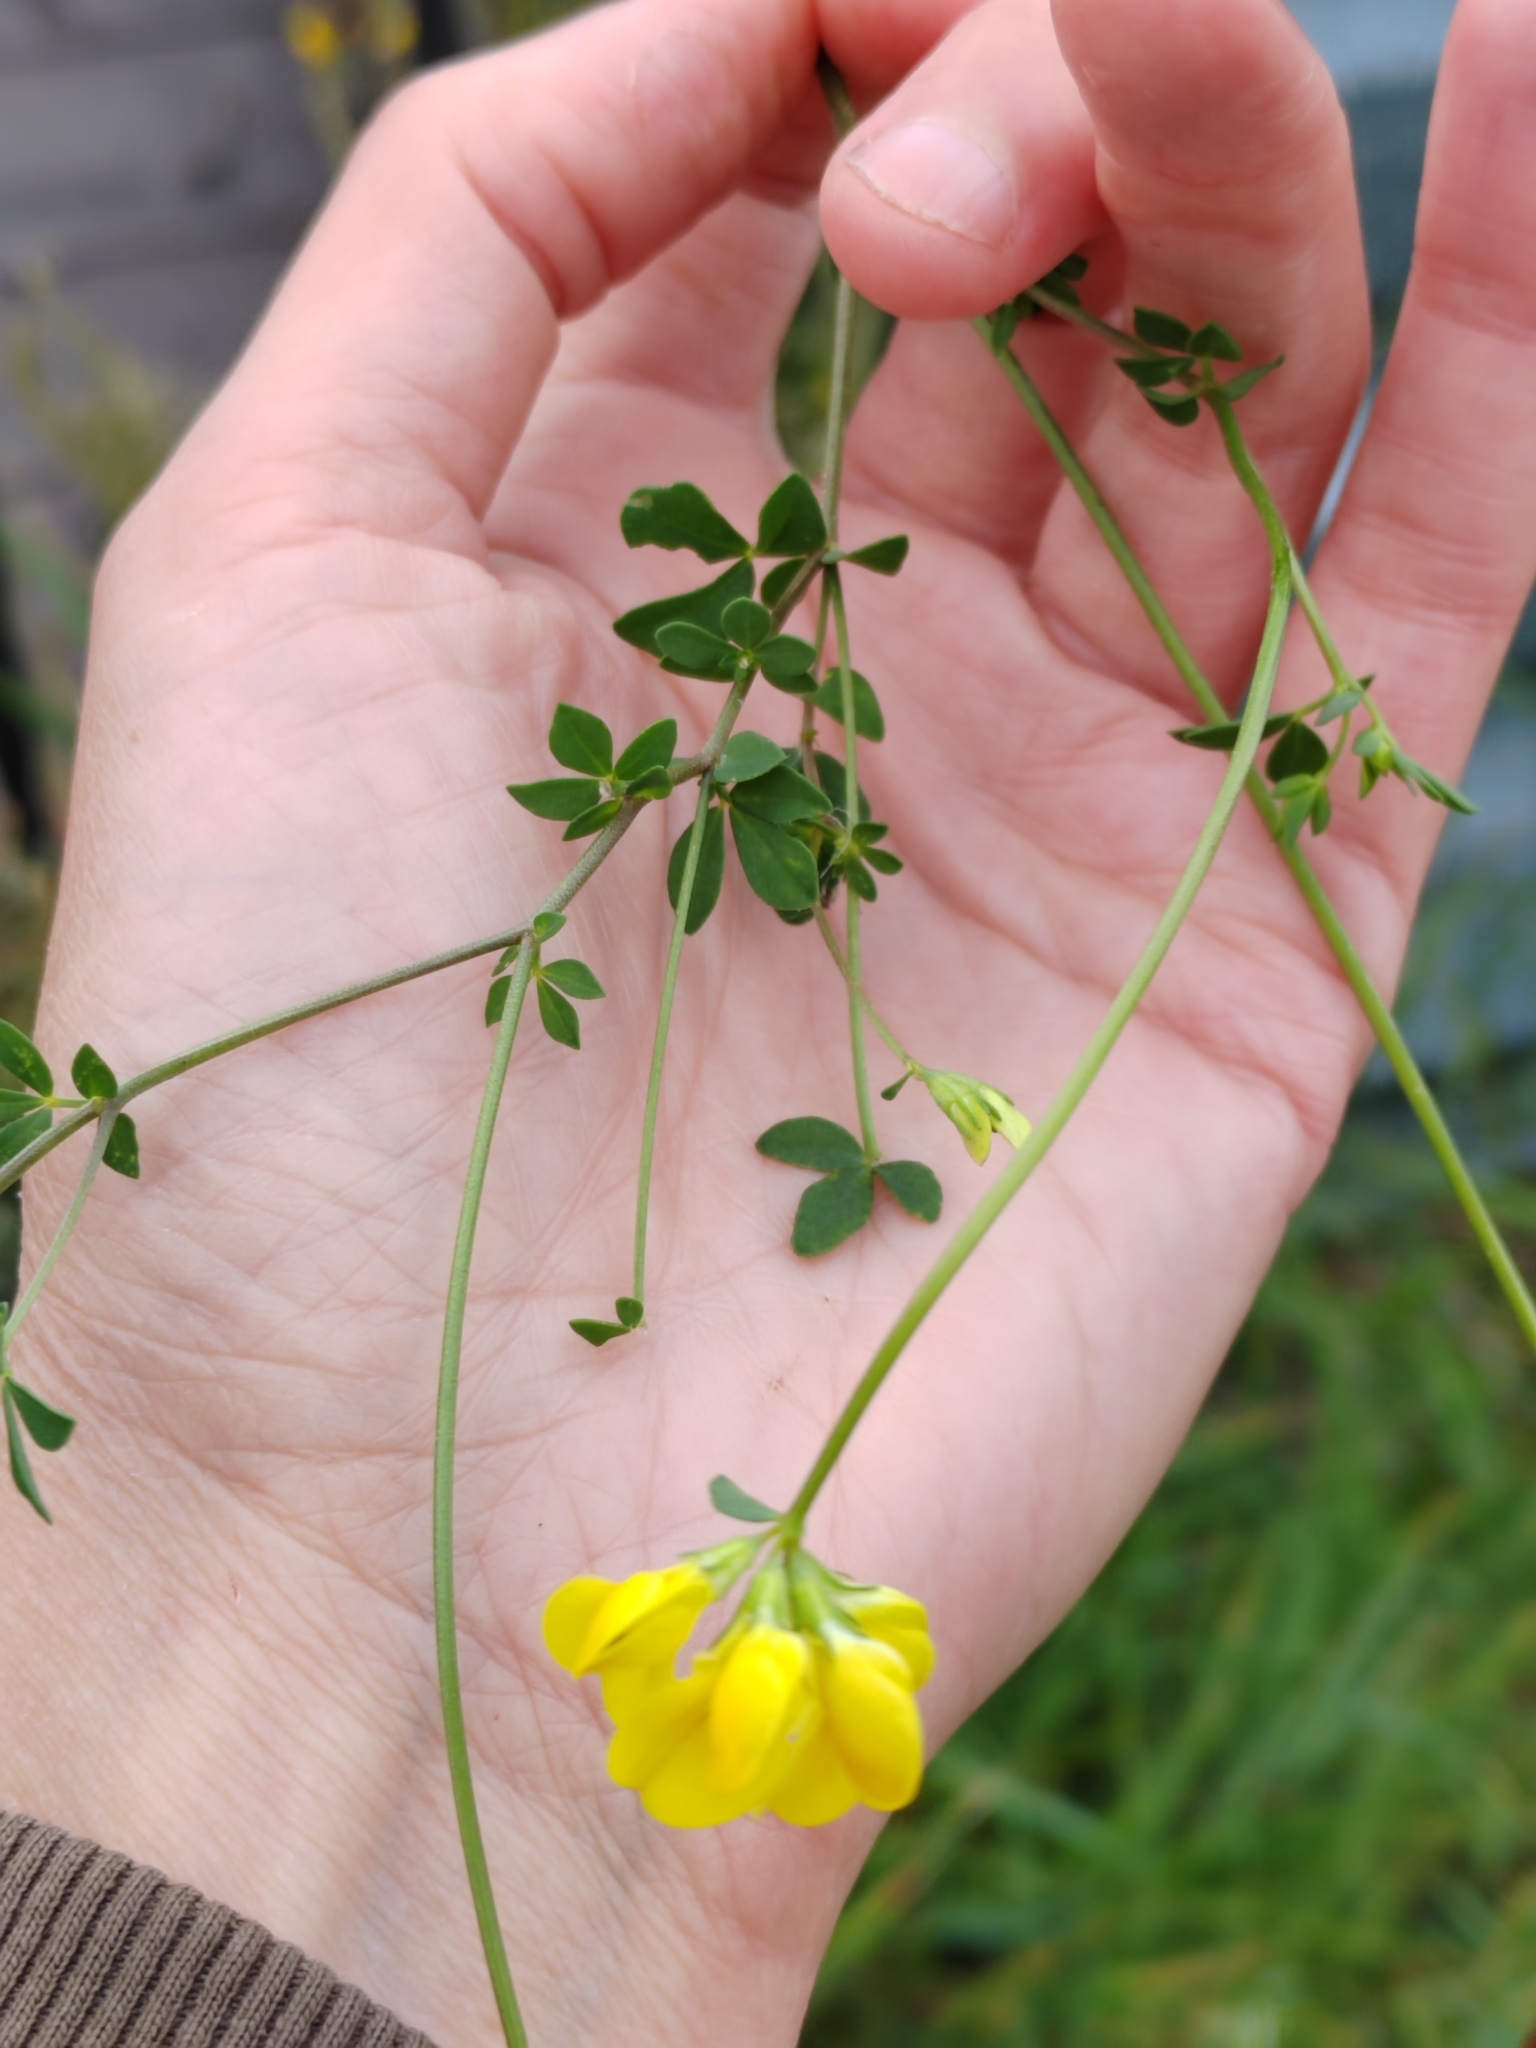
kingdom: Plantae
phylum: Tracheophyta
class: Magnoliopsida
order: Fabales
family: Fabaceae
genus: Lotus
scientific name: Lotus corniculatus
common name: Common bird's-foot-trefoil
